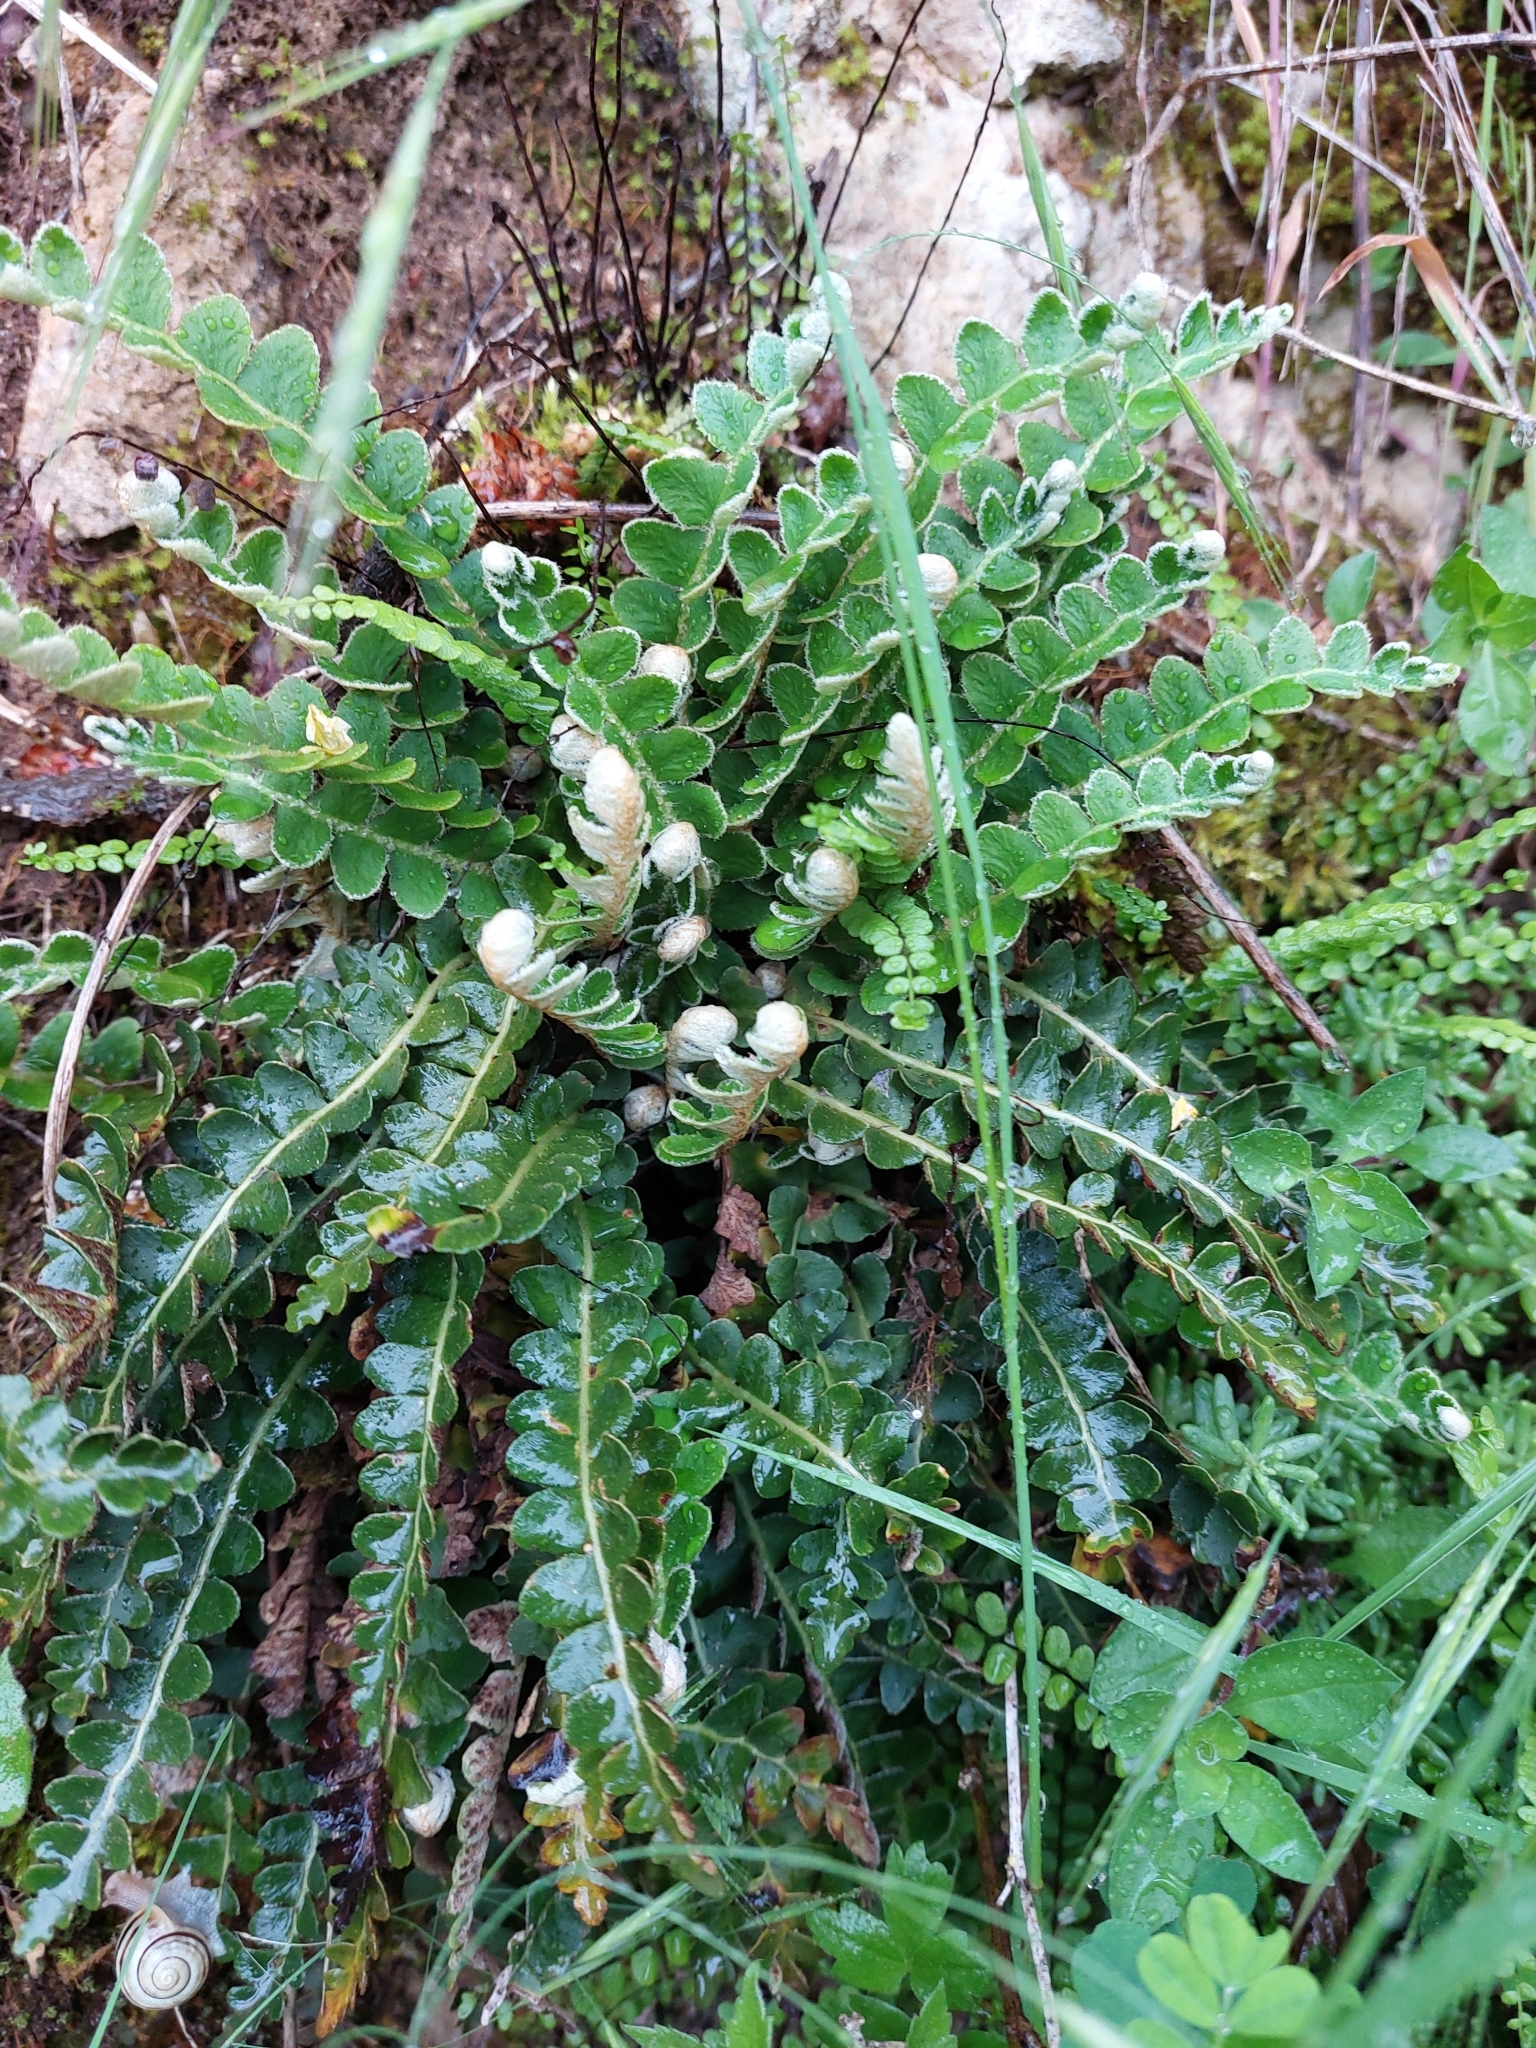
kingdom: Plantae
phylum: Tracheophyta
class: Polypodiopsida
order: Polypodiales
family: Aspleniaceae
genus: Asplenium
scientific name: Asplenium ceterach
